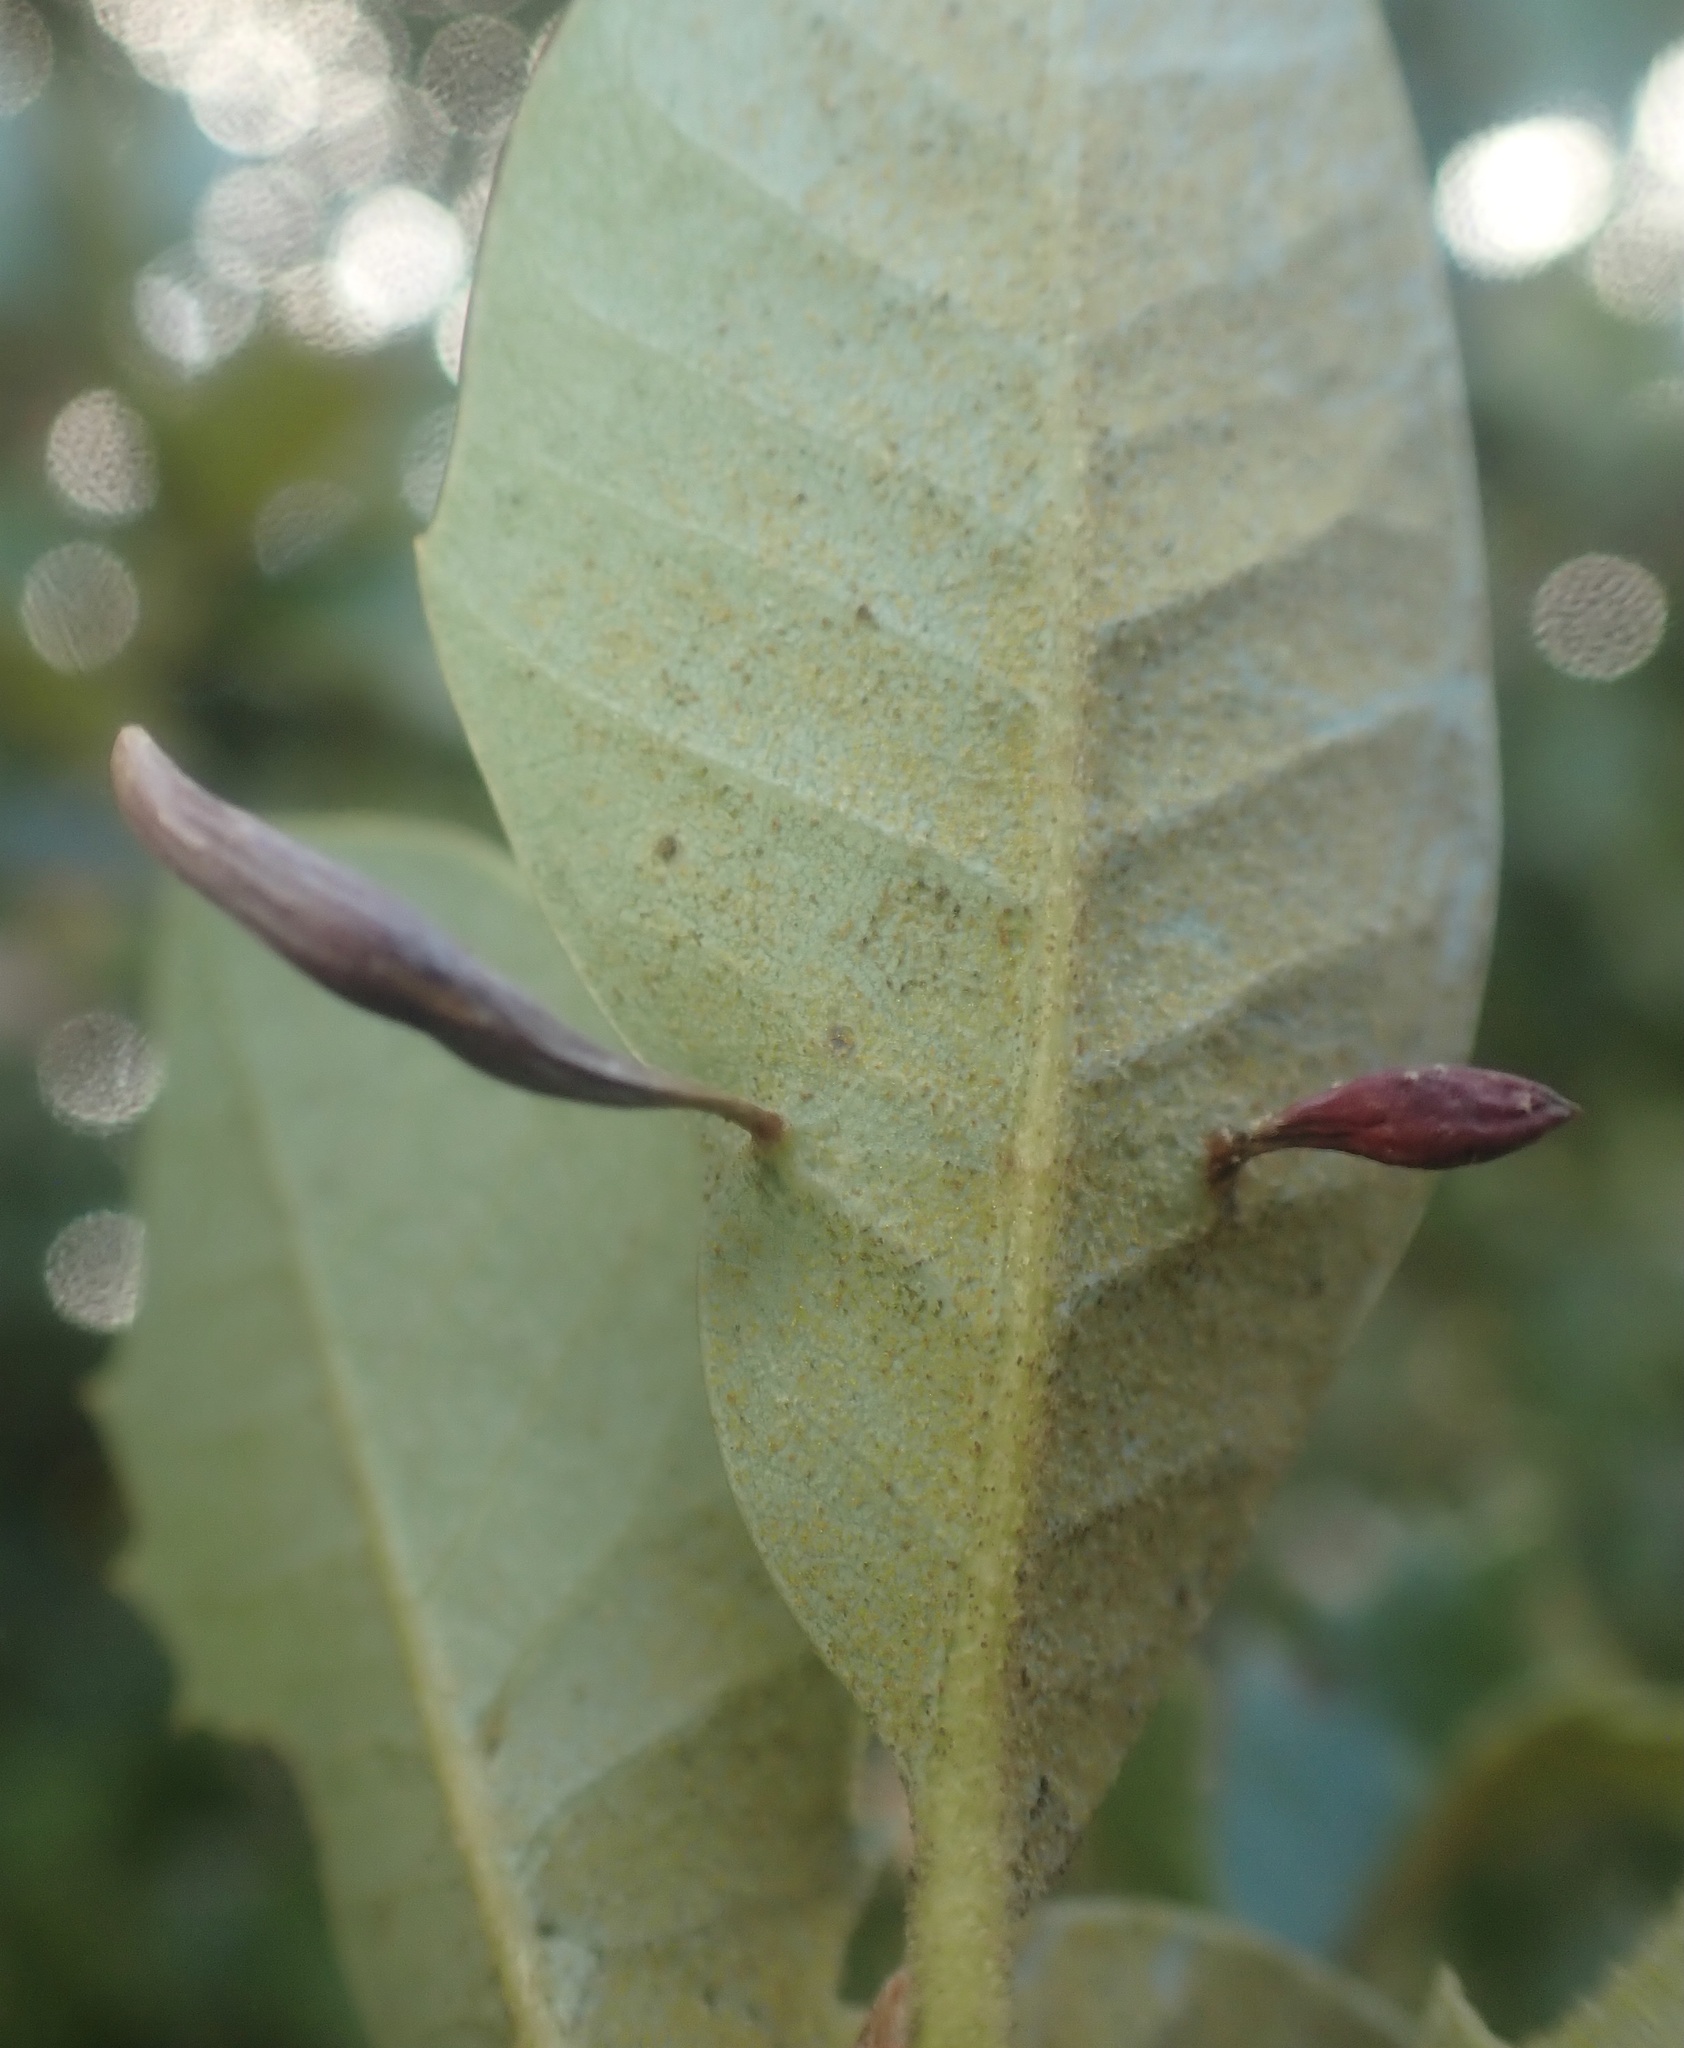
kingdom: Animalia
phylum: Arthropoda
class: Insecta
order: Hymenoptera
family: Cynipidae
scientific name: Cynipidae
